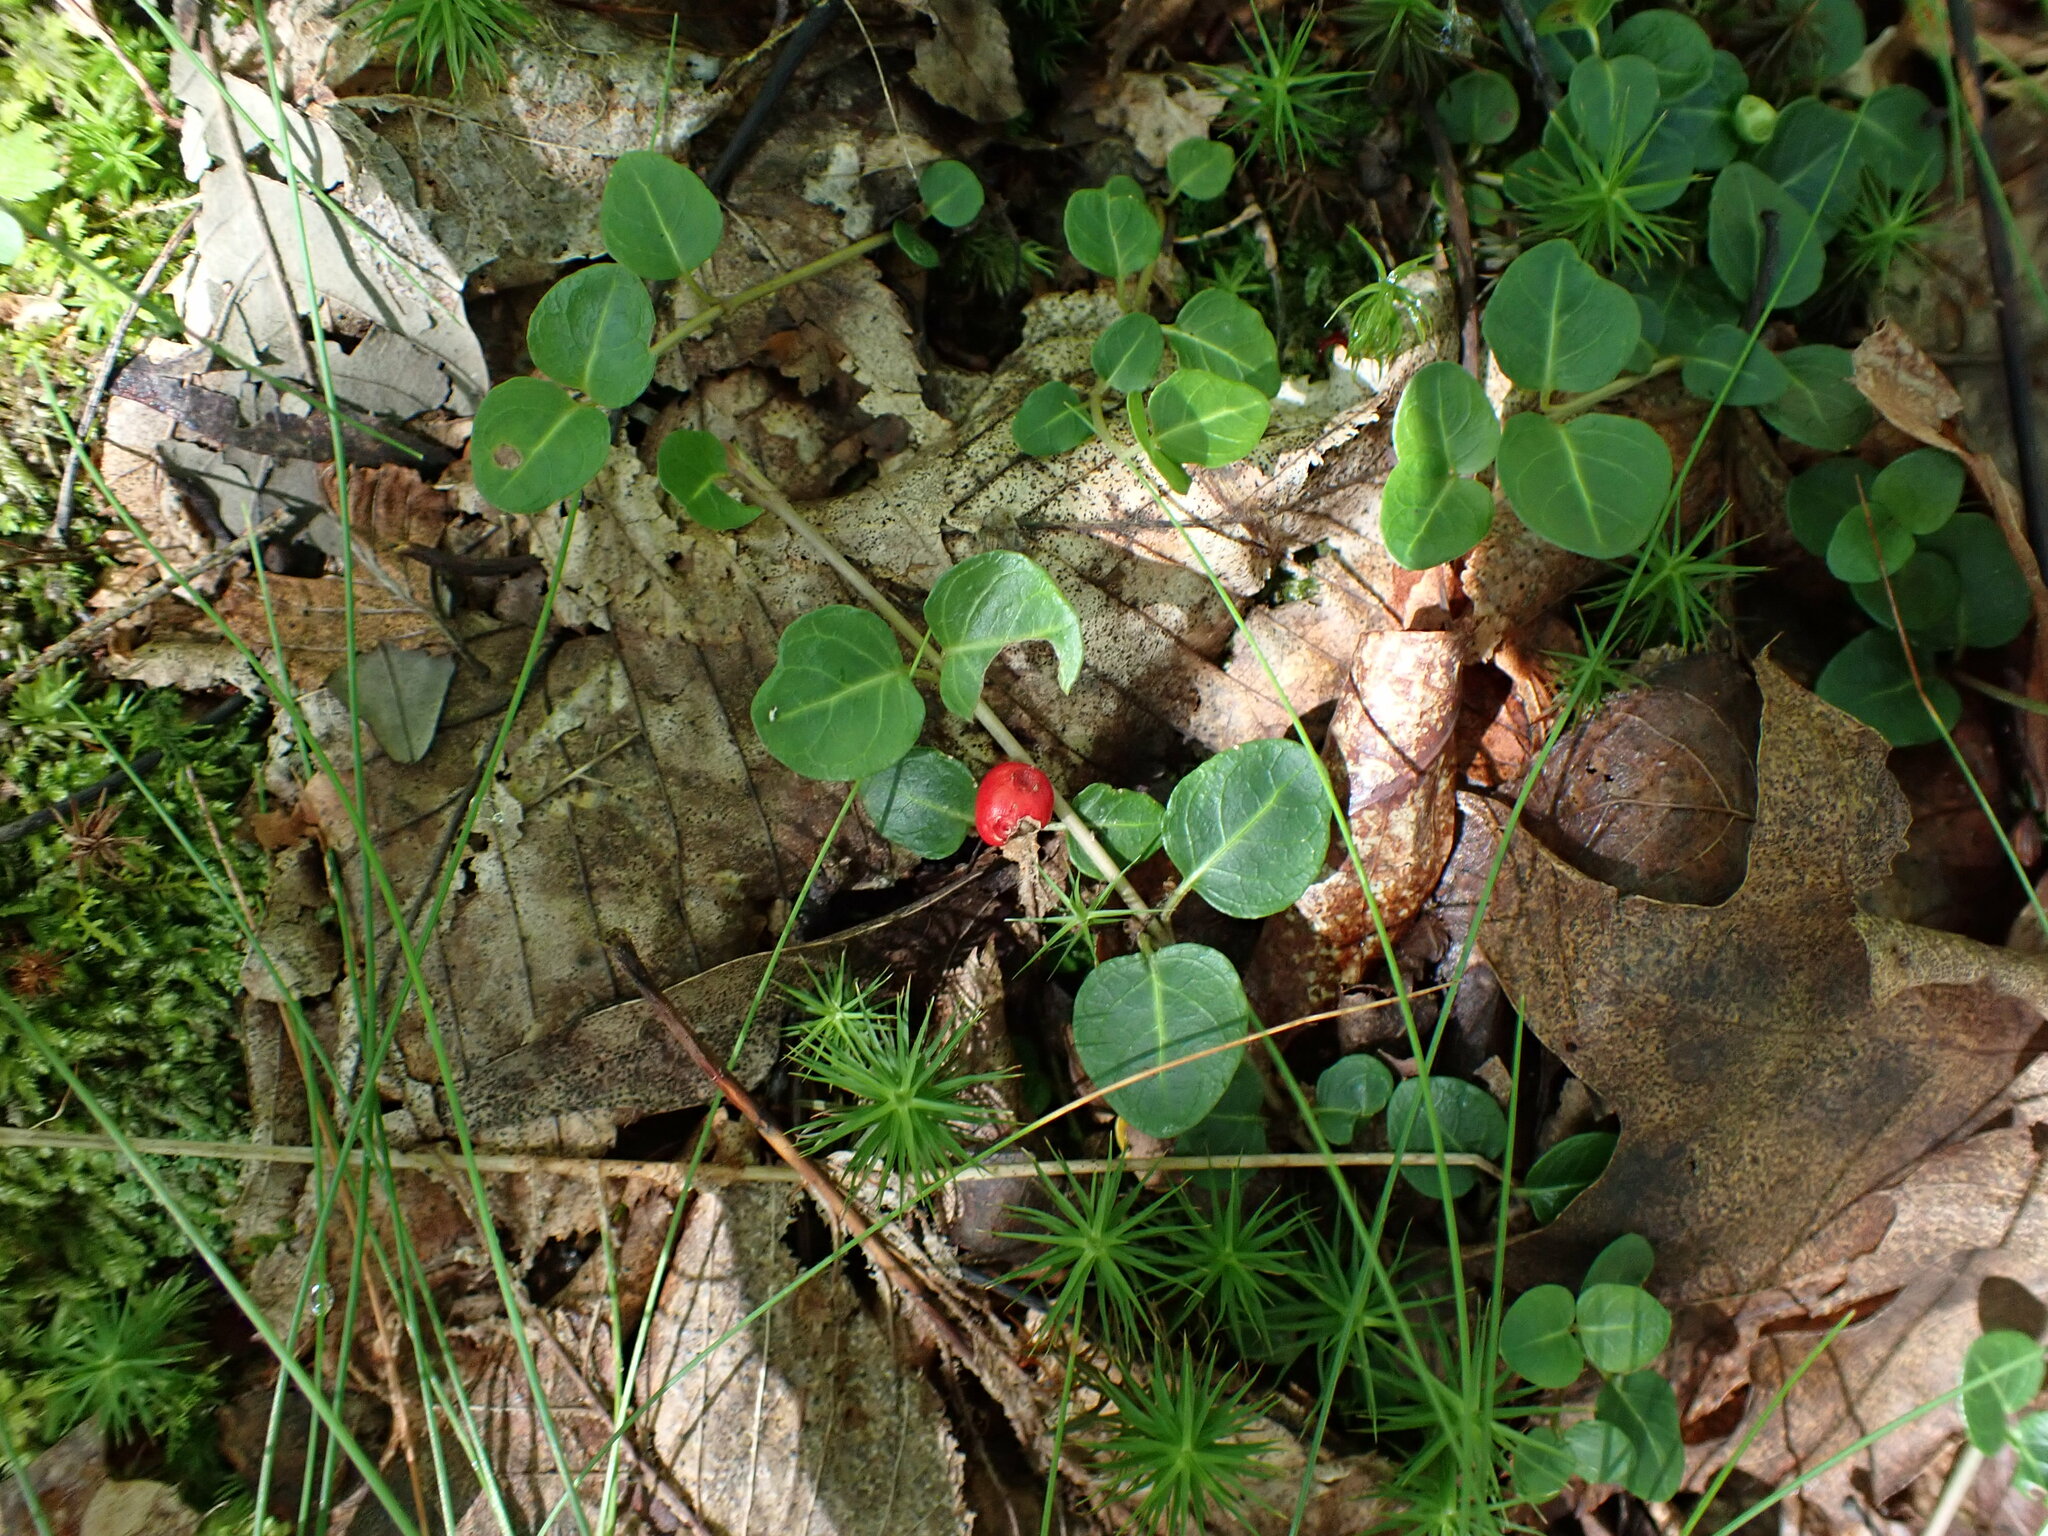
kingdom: Plantae
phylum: Tracheophyta
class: Magnoliopsida
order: Gentianales
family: Rubiaceae
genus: Mitchella
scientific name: Mitchella repens
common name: Partridge-berry
